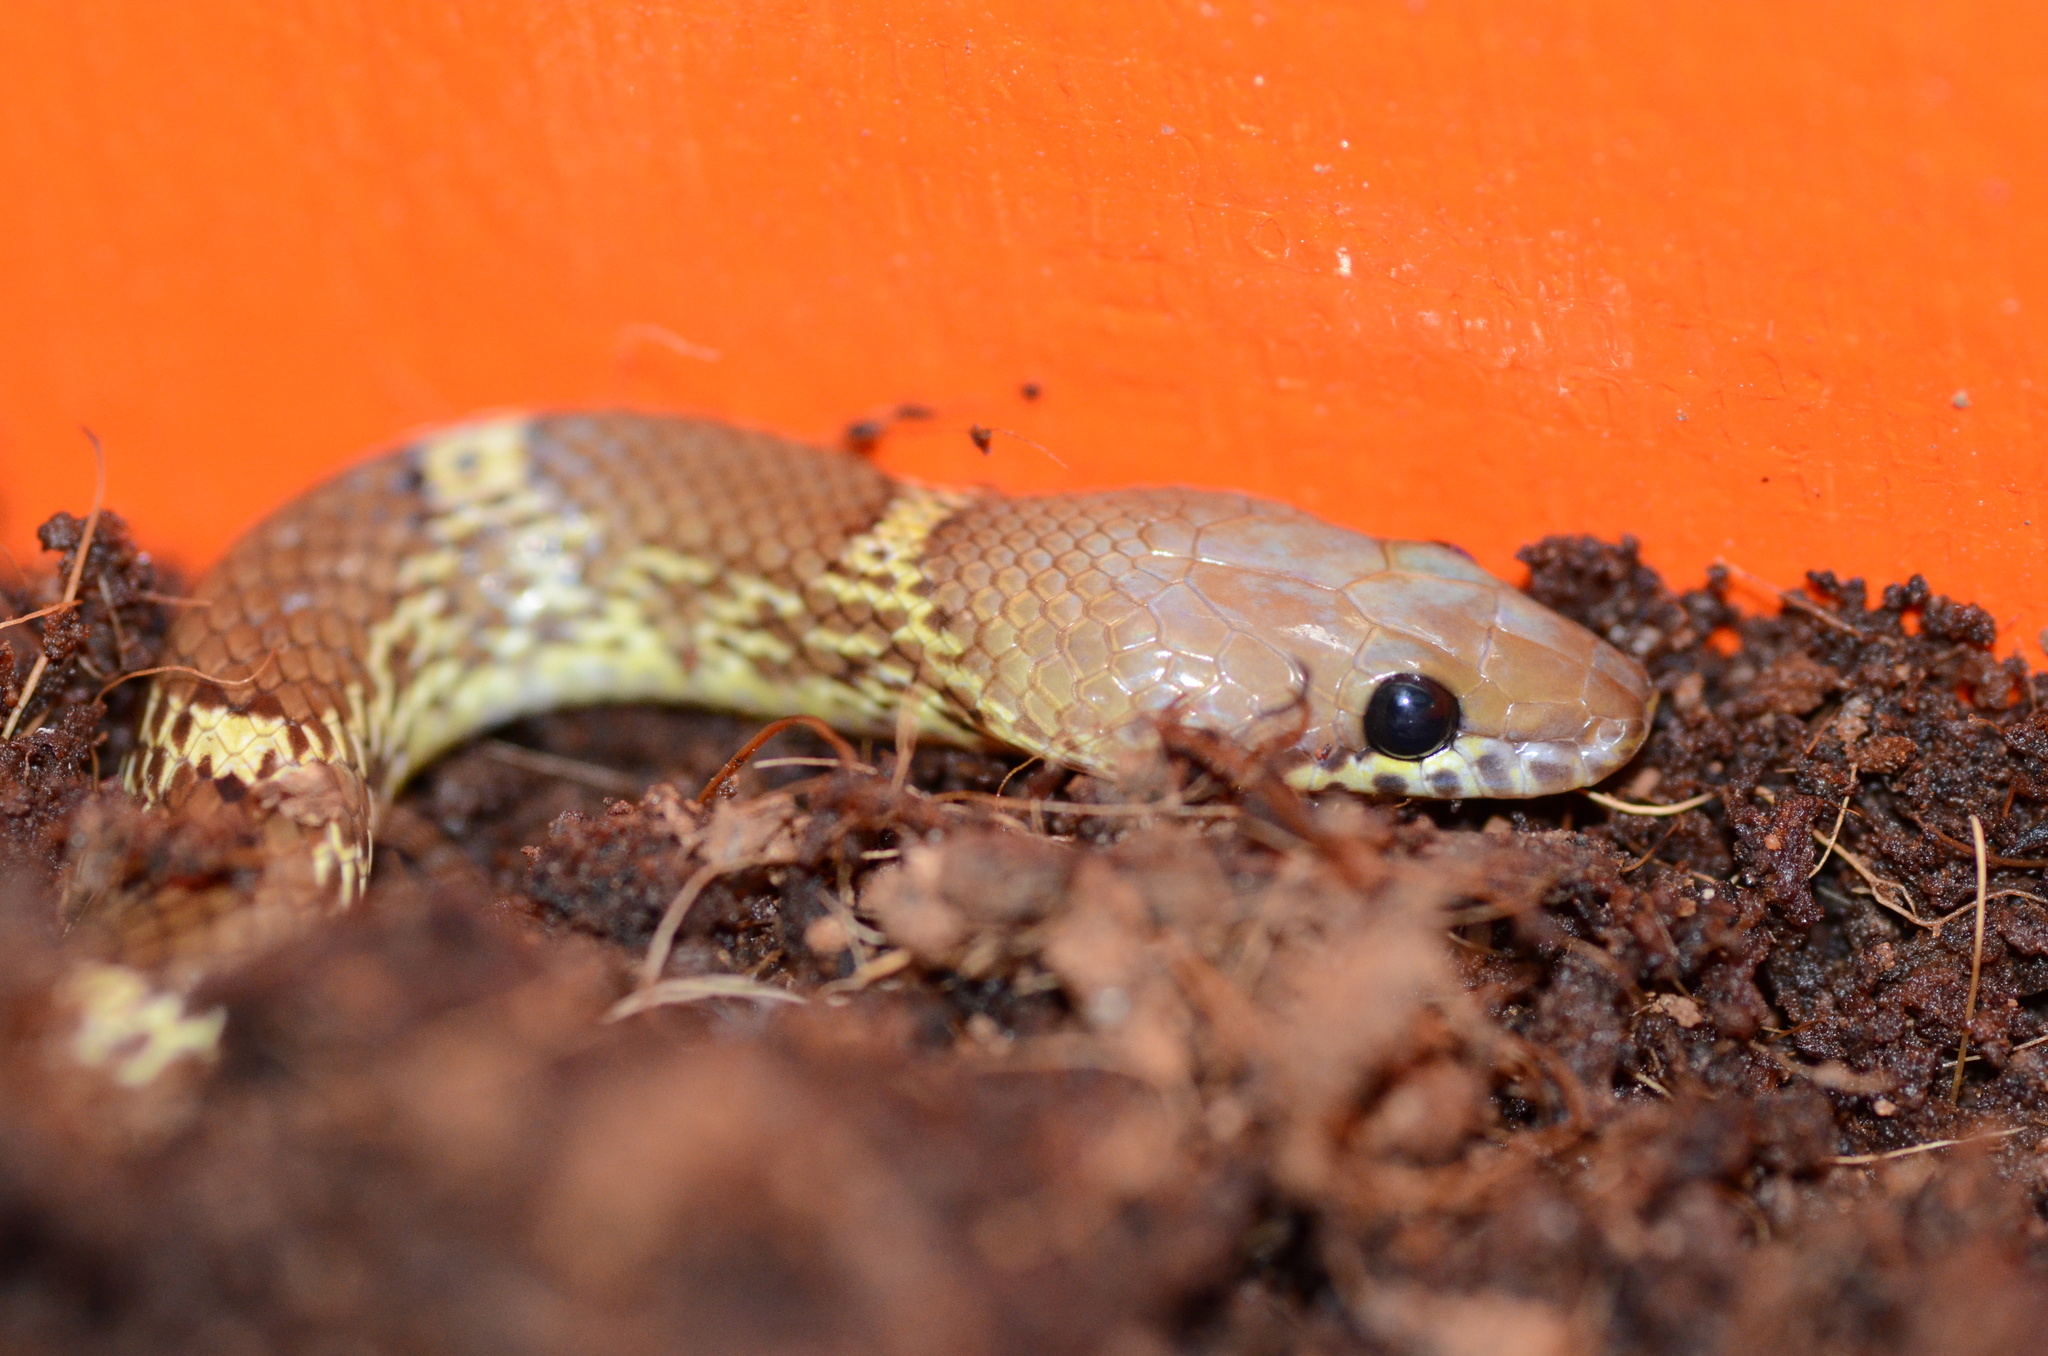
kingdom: Animalia
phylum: Chordata
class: Squamata
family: Colubridae
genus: Lycodon
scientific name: Lycodon fasciolatus
